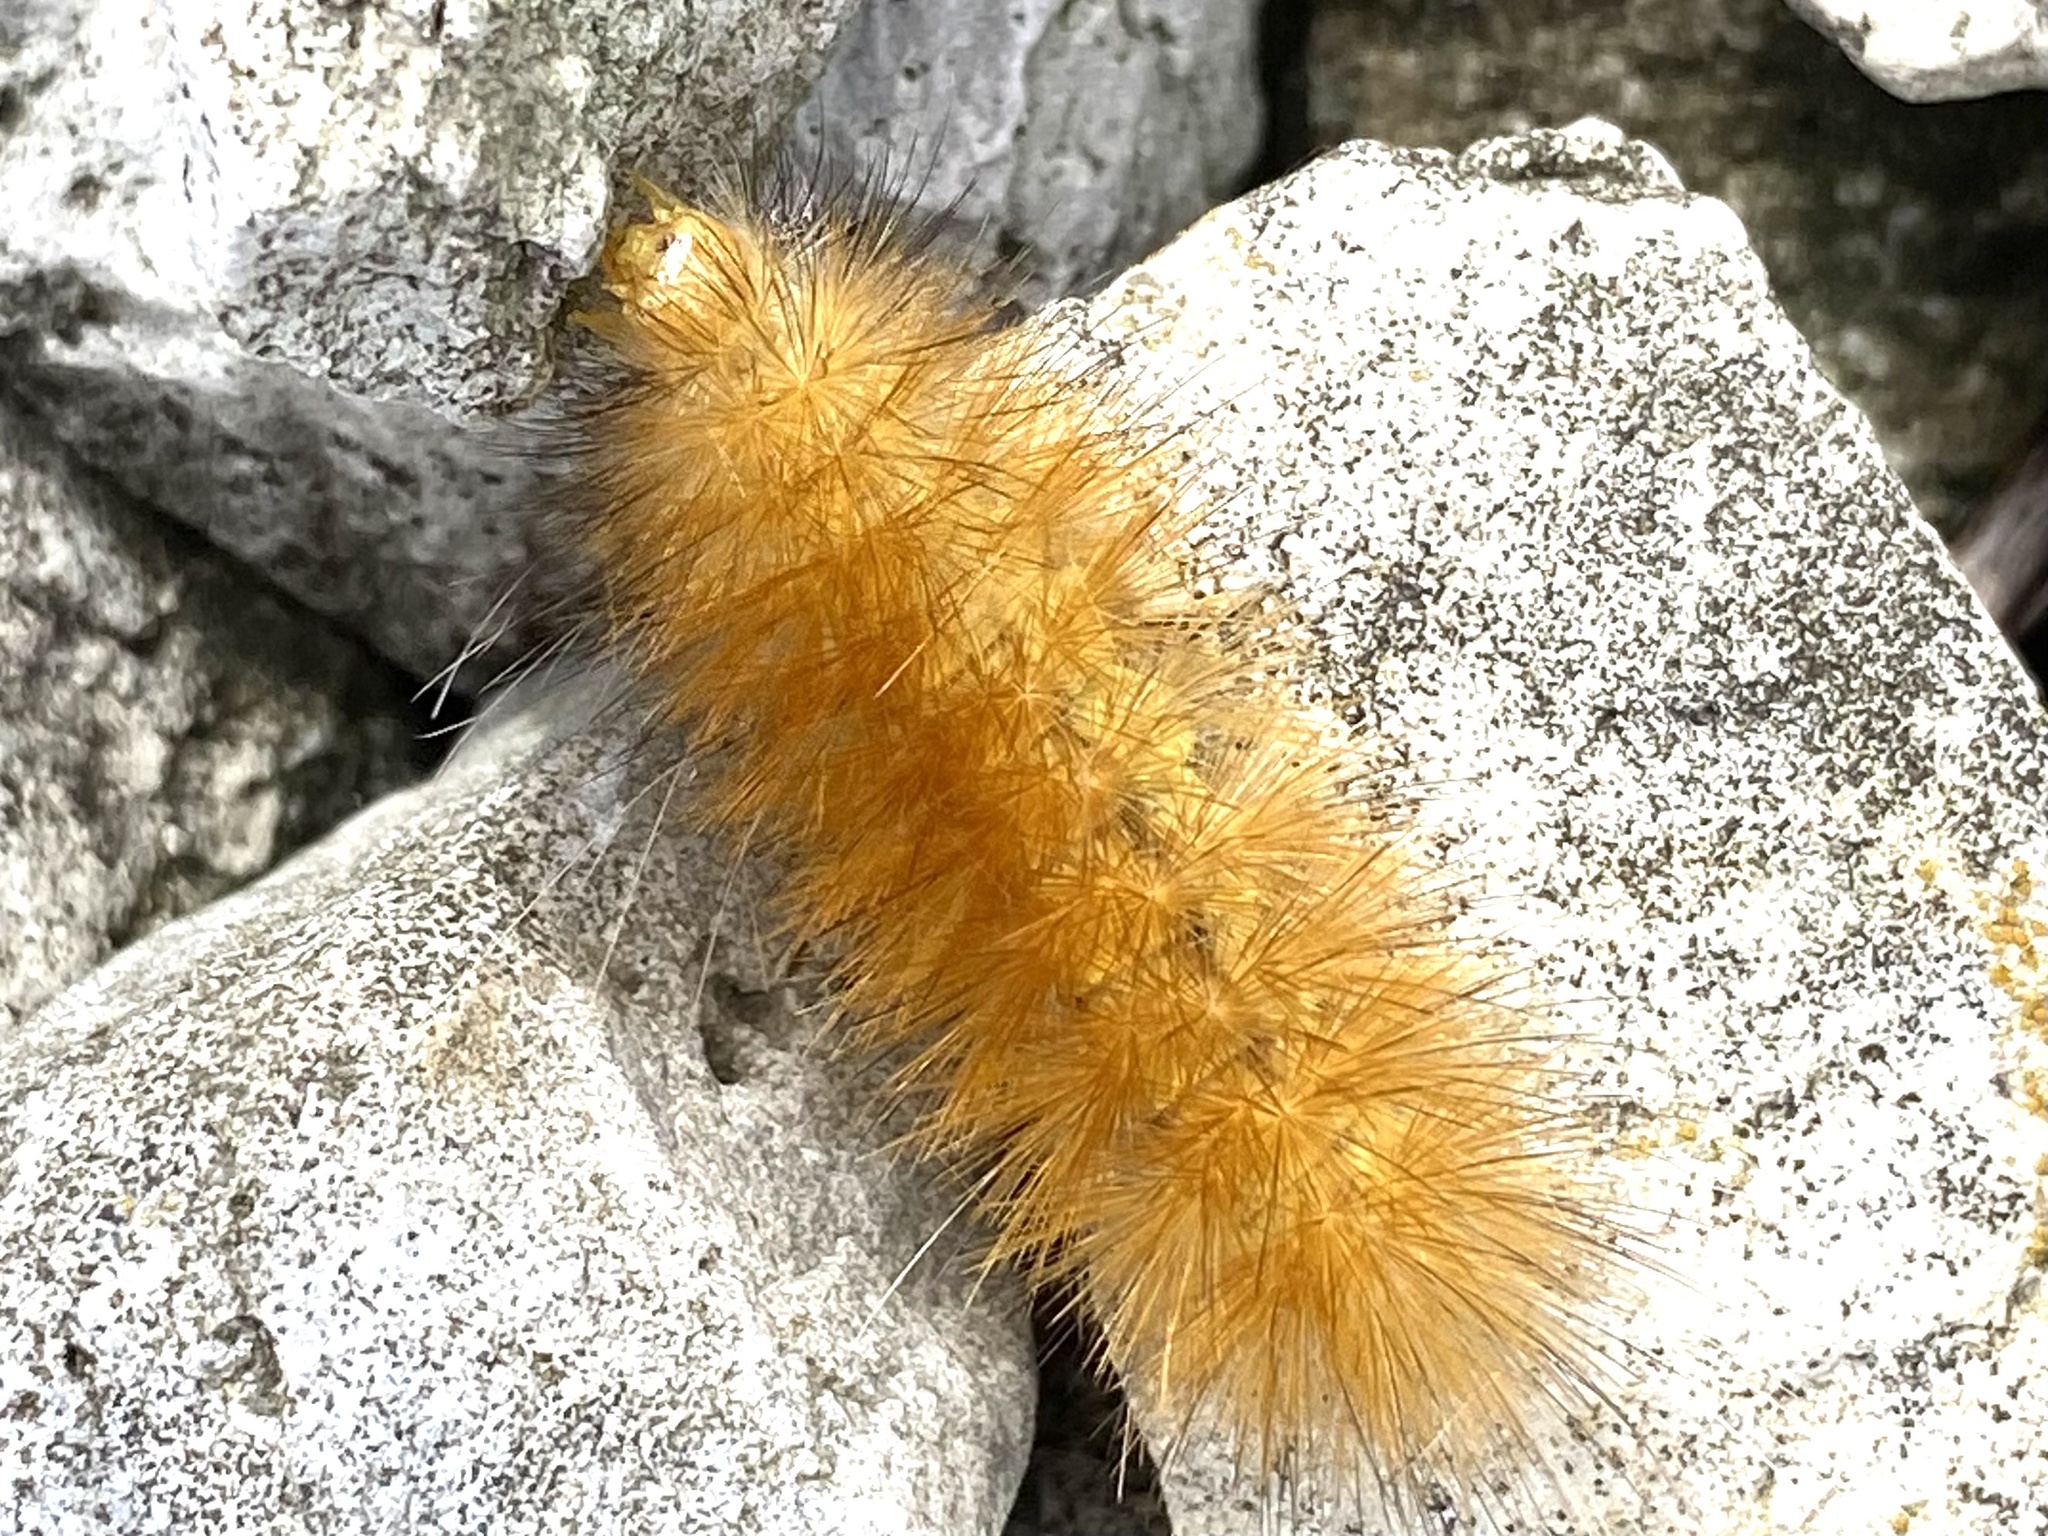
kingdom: Animalia
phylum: Arthropoda
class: Insecta
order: Lepidoptera
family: Erebidae
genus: Spilosoma
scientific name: Spilosoma virginica
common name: Virginia tiger moth
